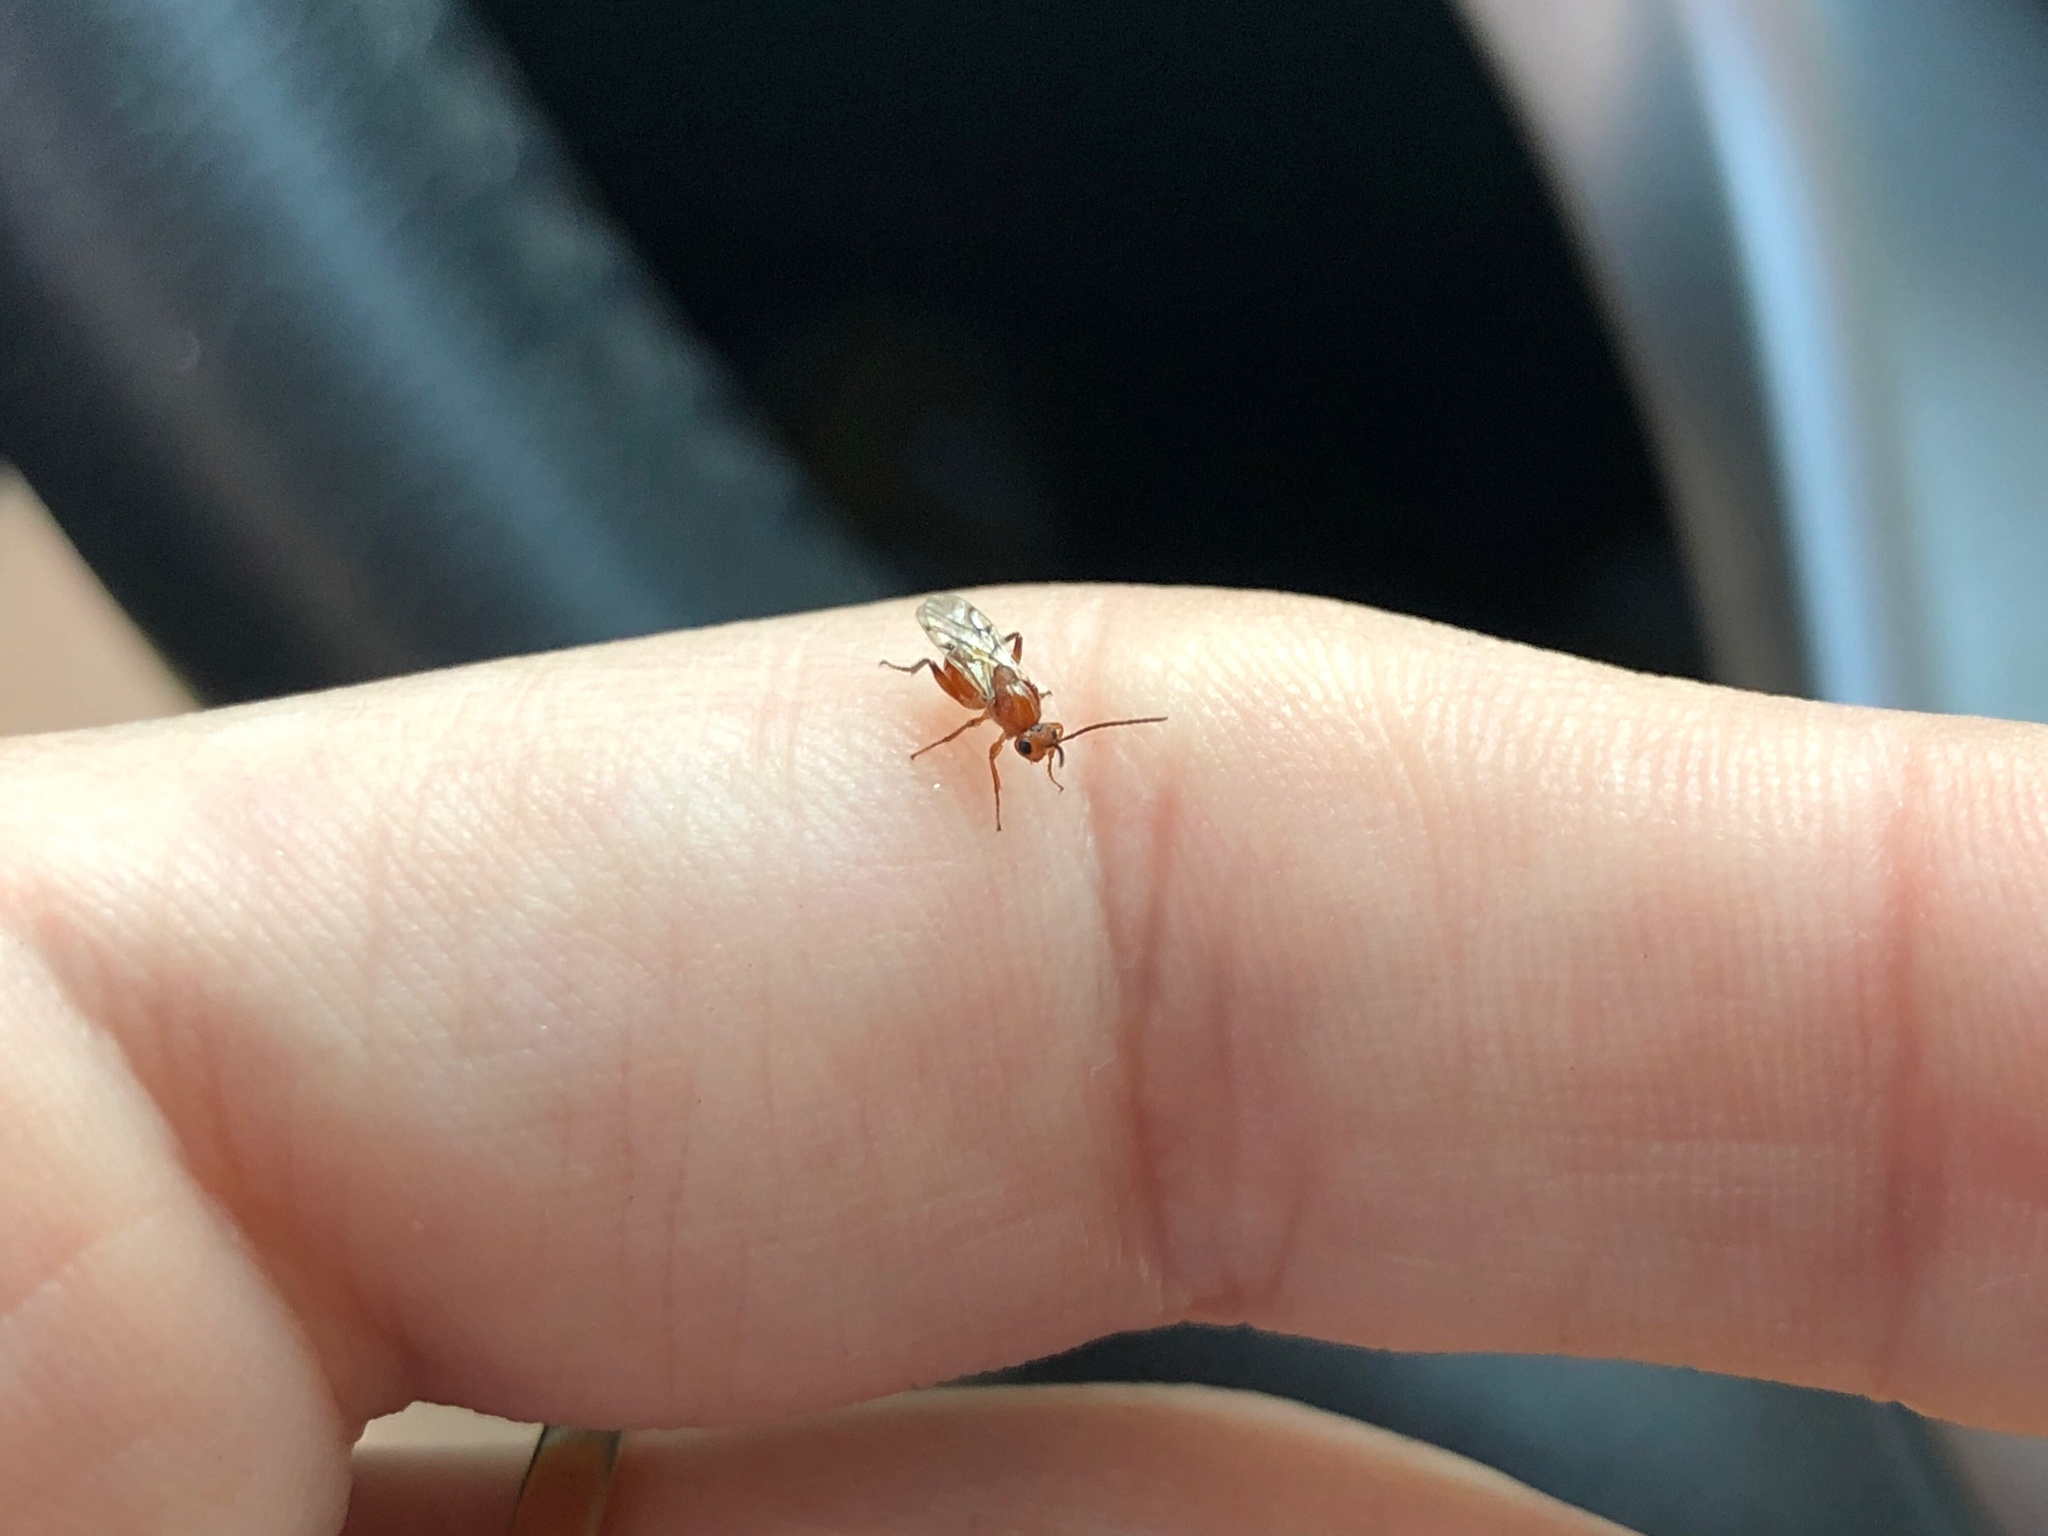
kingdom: Animalia
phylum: Arthropoda
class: Insecta
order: Hymenoptera
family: Cynipidae
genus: Belonocnema
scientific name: Belonocnema kinseyi
